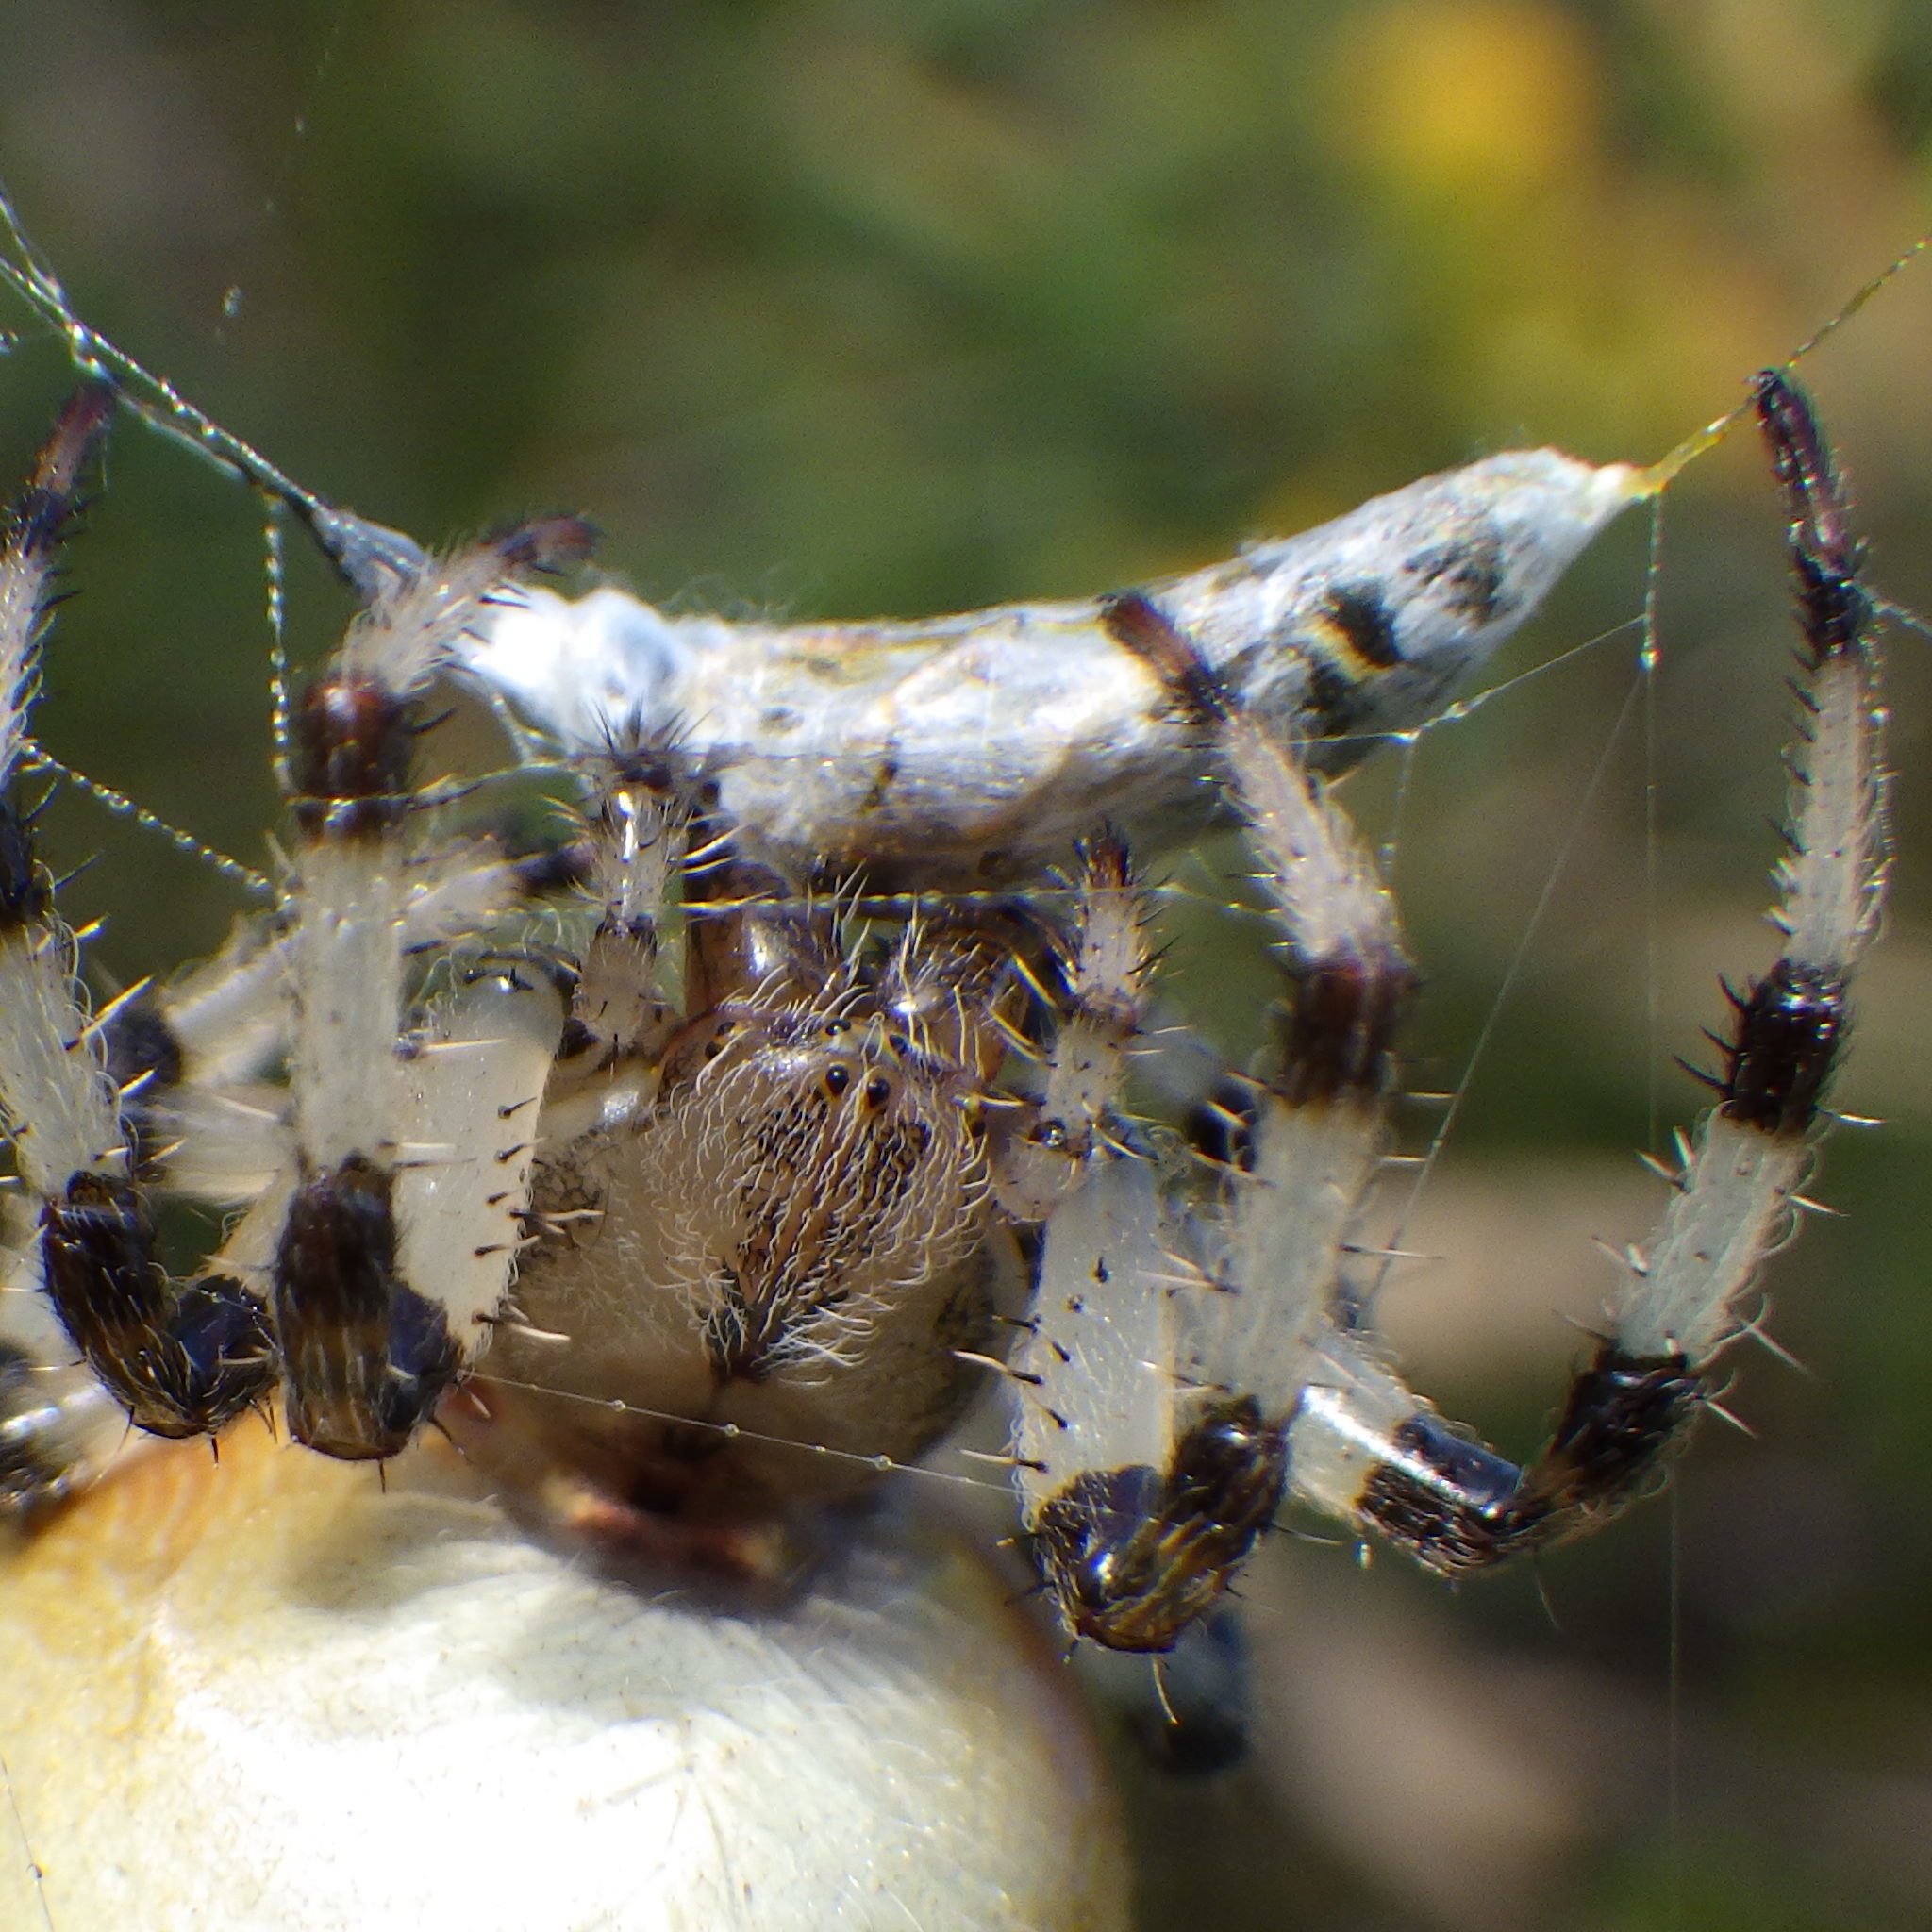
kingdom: Animalia
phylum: Arthropoda
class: Arachnida
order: Araneae
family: Araneidae
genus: Araneus
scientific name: Araneus trifolium
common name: Shamrock orbweaver
